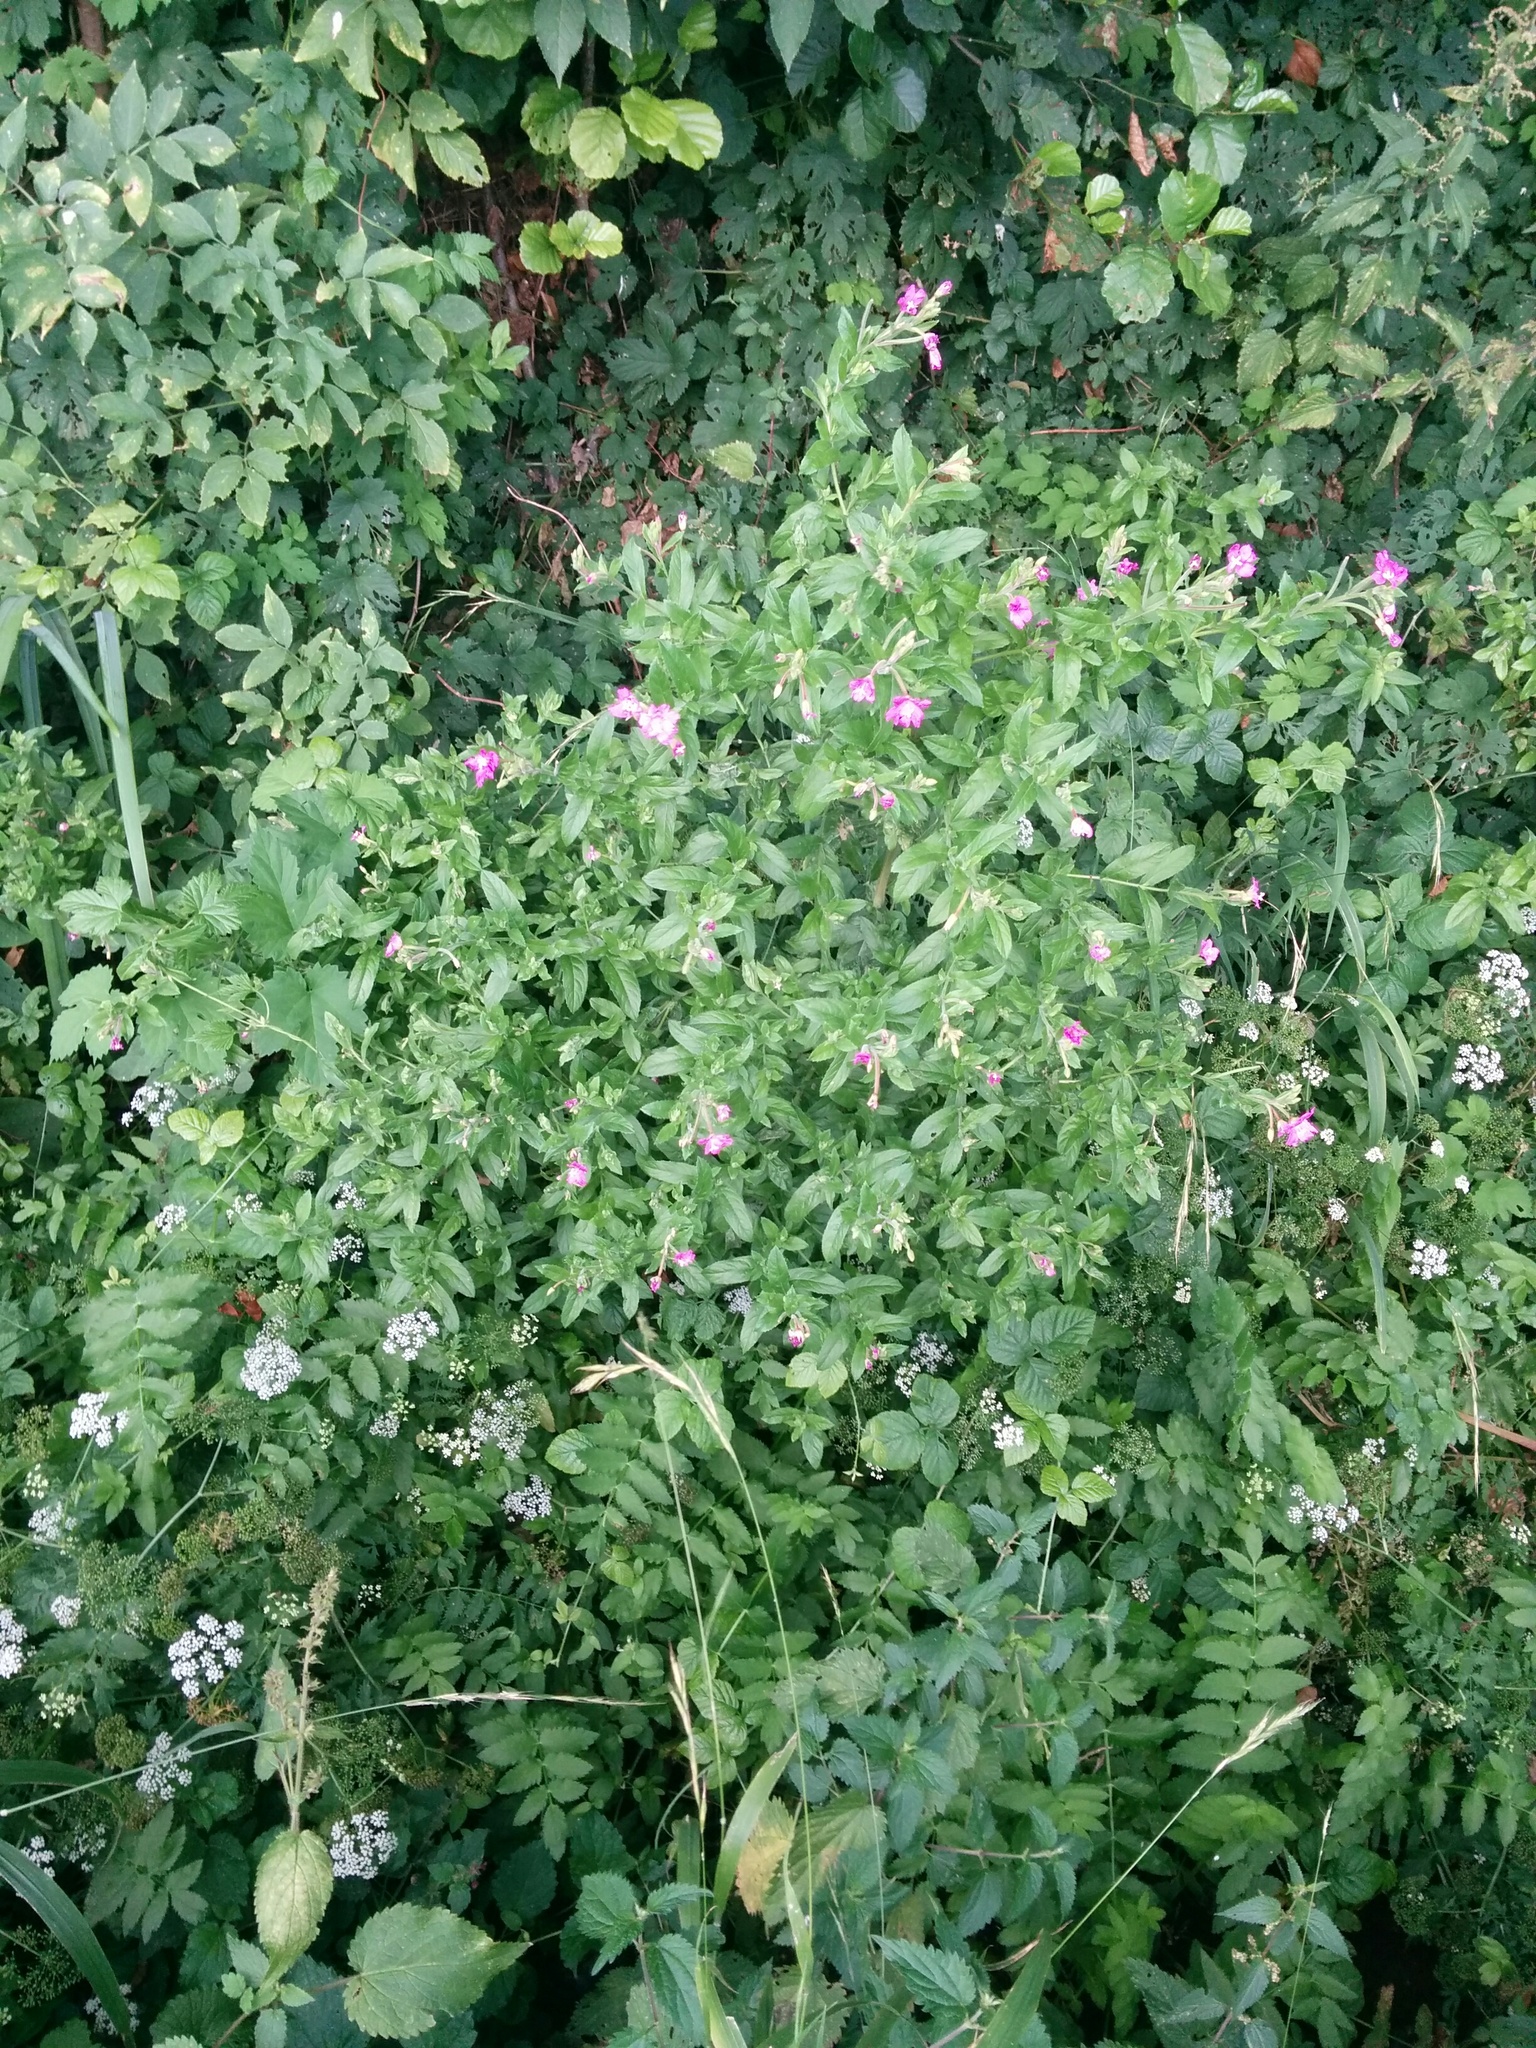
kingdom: Plantae
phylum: Tracheophyta
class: Magnoliopsida
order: Myrtales
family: Onagraceae
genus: Epilobium
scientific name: Epilobium hirsutum
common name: Great willowherb
